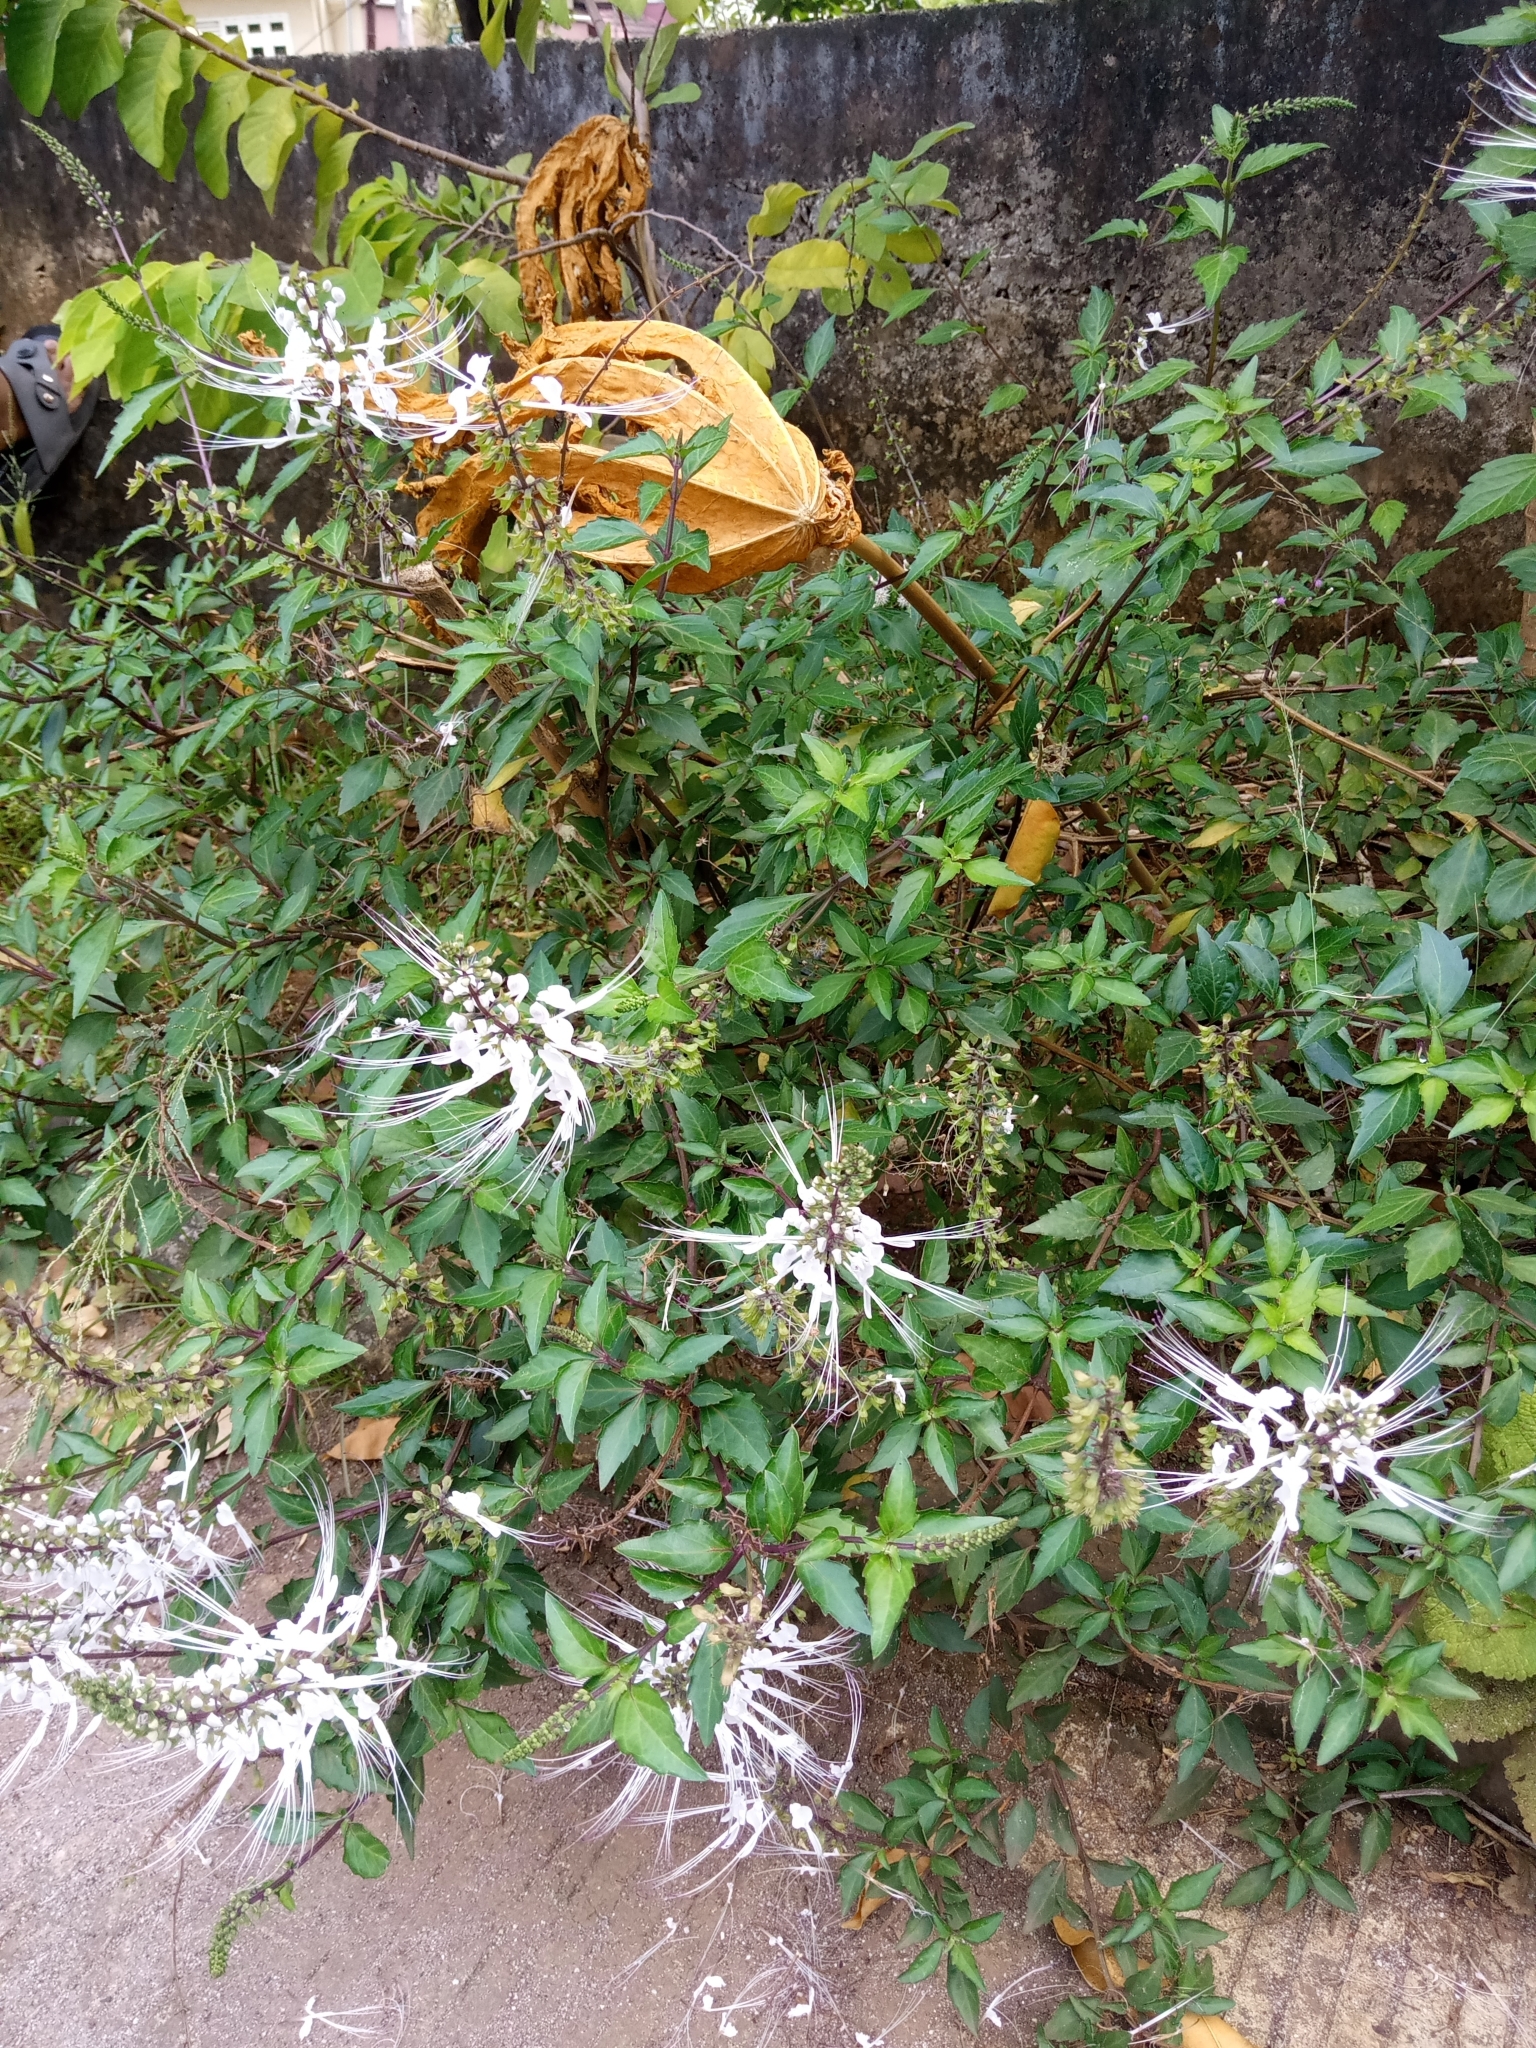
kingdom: Plantae
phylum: Tracheophyta
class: Magnoliopsida
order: Lamiales
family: Lamiaceae
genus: Orthosiphon
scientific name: Orthosiphon aristatus
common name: Whiskerplant
